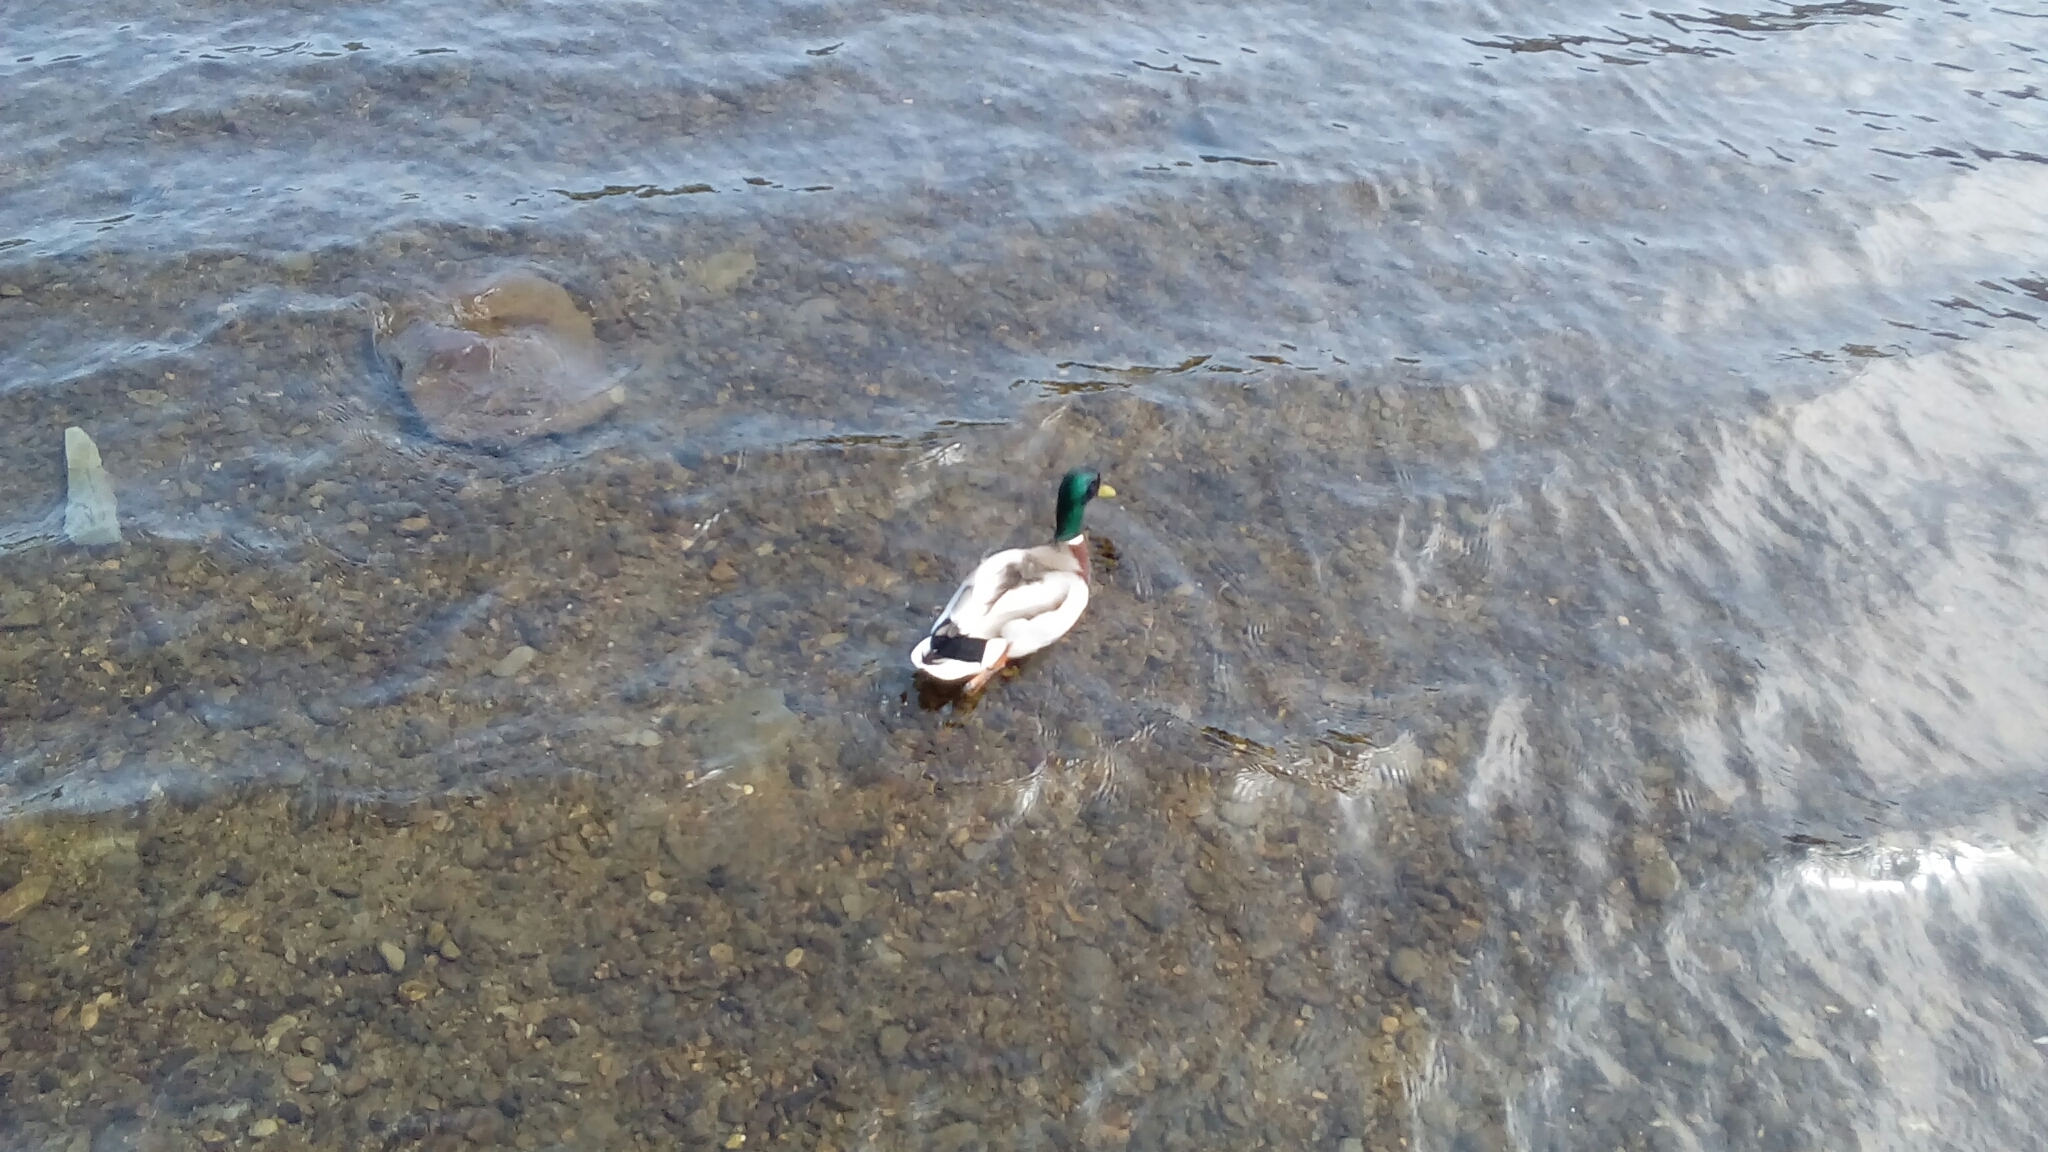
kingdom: Animalia
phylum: Chordata
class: Aves
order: Anseriformes
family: Anatidae
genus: Anas
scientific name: Anas platyrhynchos
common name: Mallard
